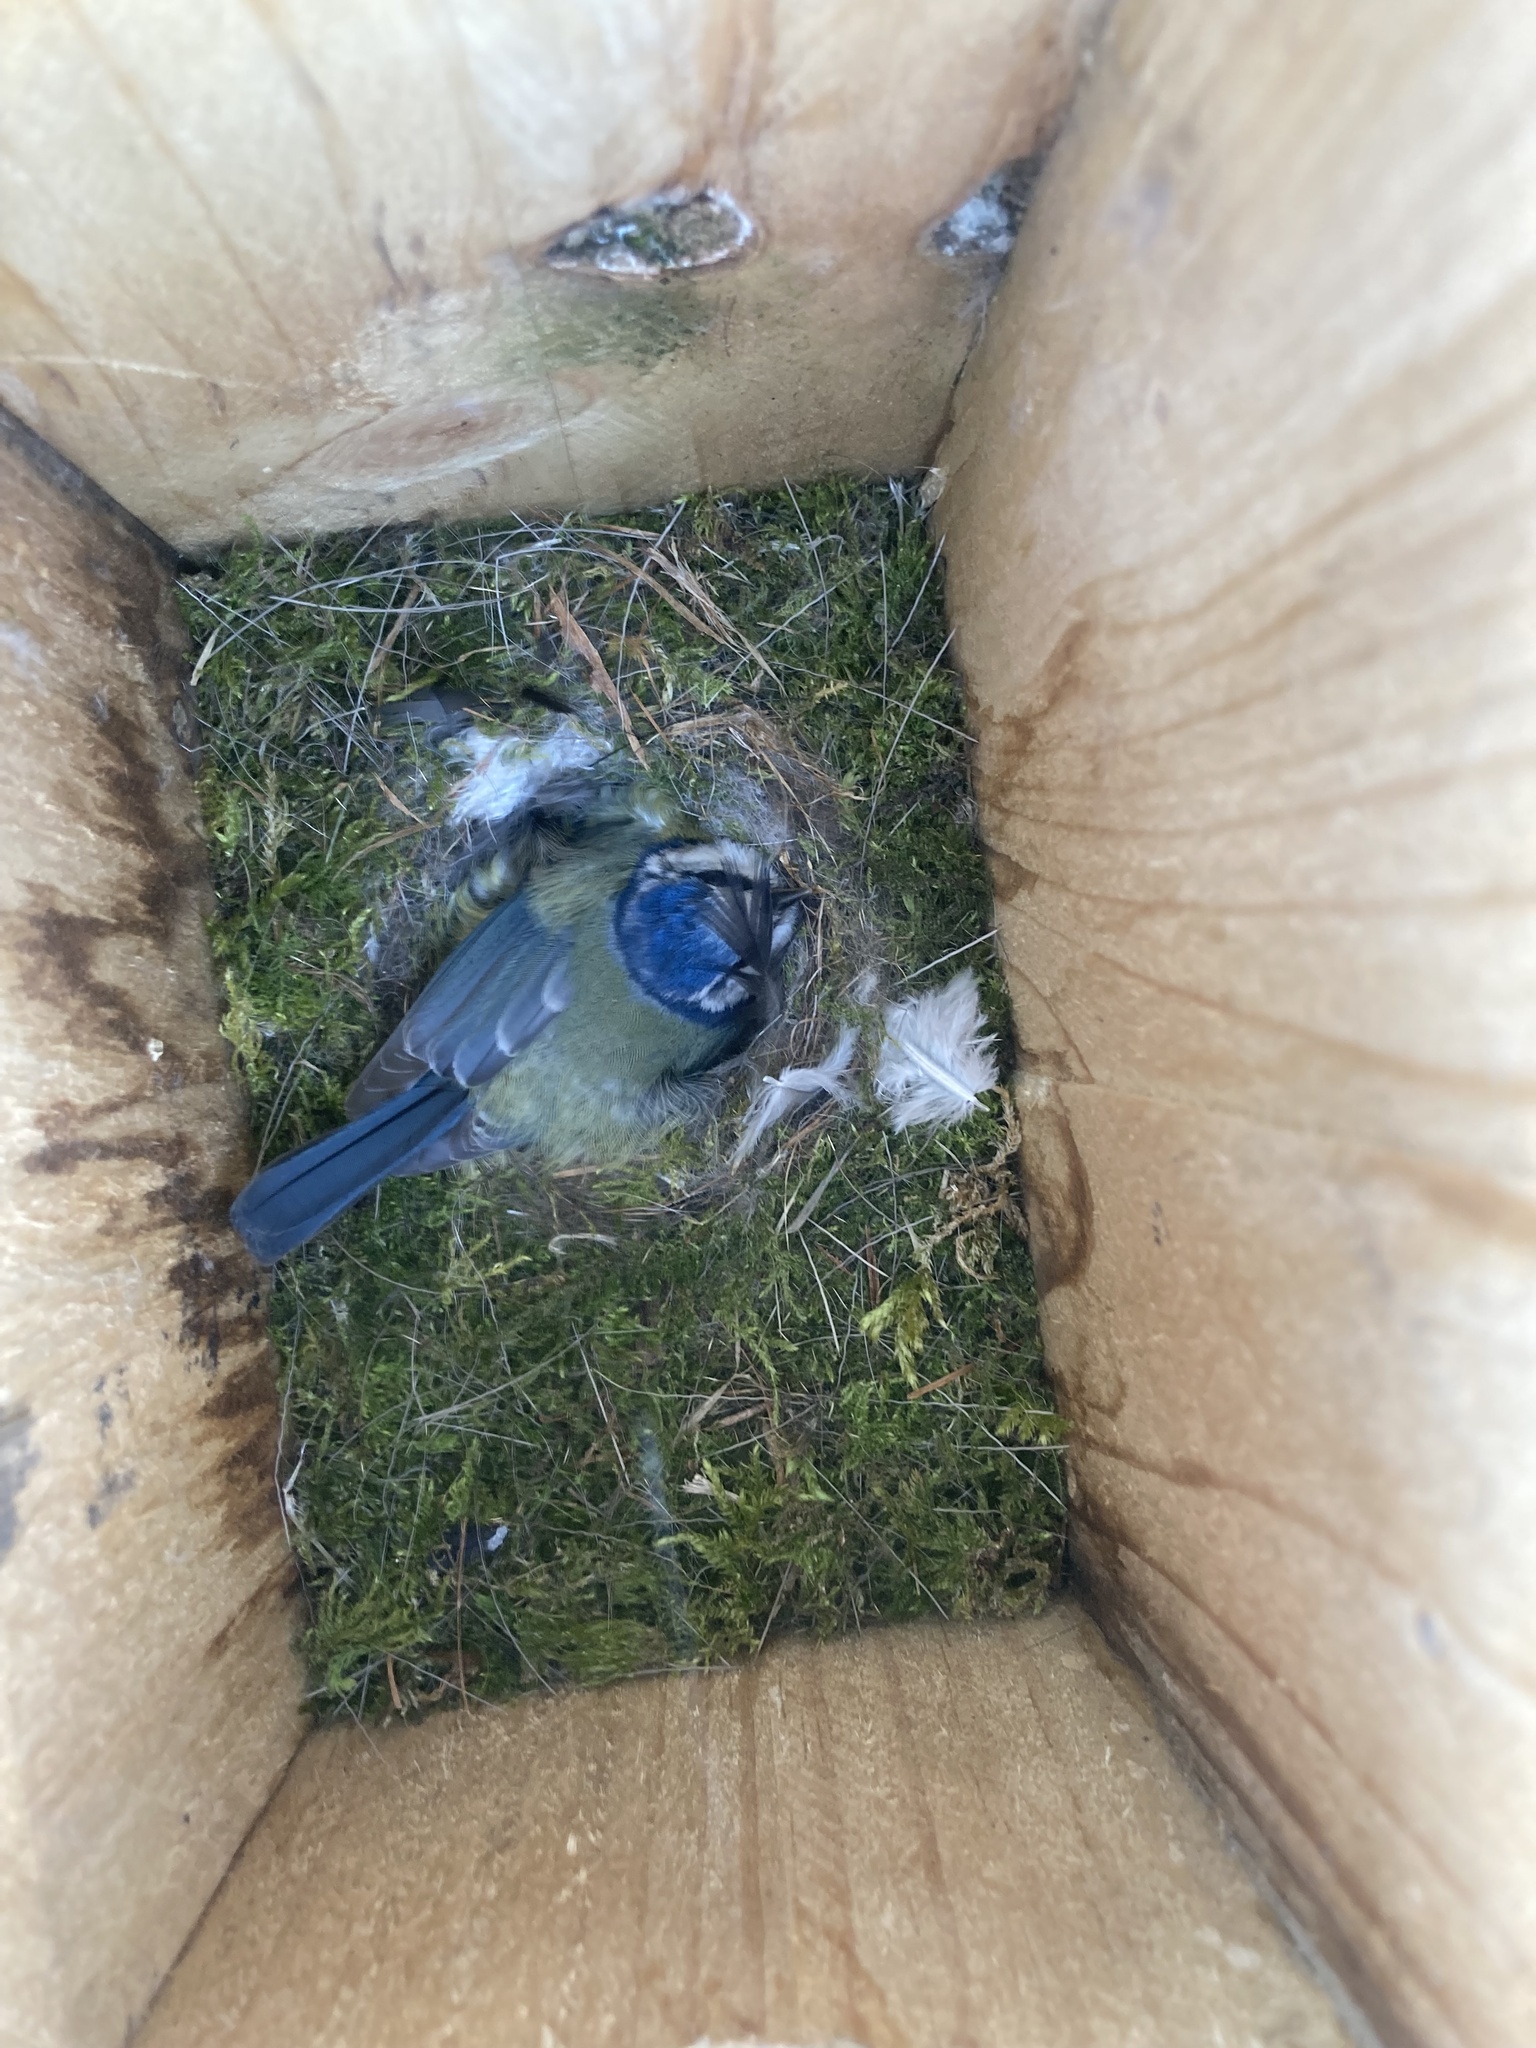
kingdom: Animalia
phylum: Chordata
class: Aves
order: Passeriformes
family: Paridae
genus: Cyanistes
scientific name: Cyanistes caeruleus
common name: Eurasian blue tit
